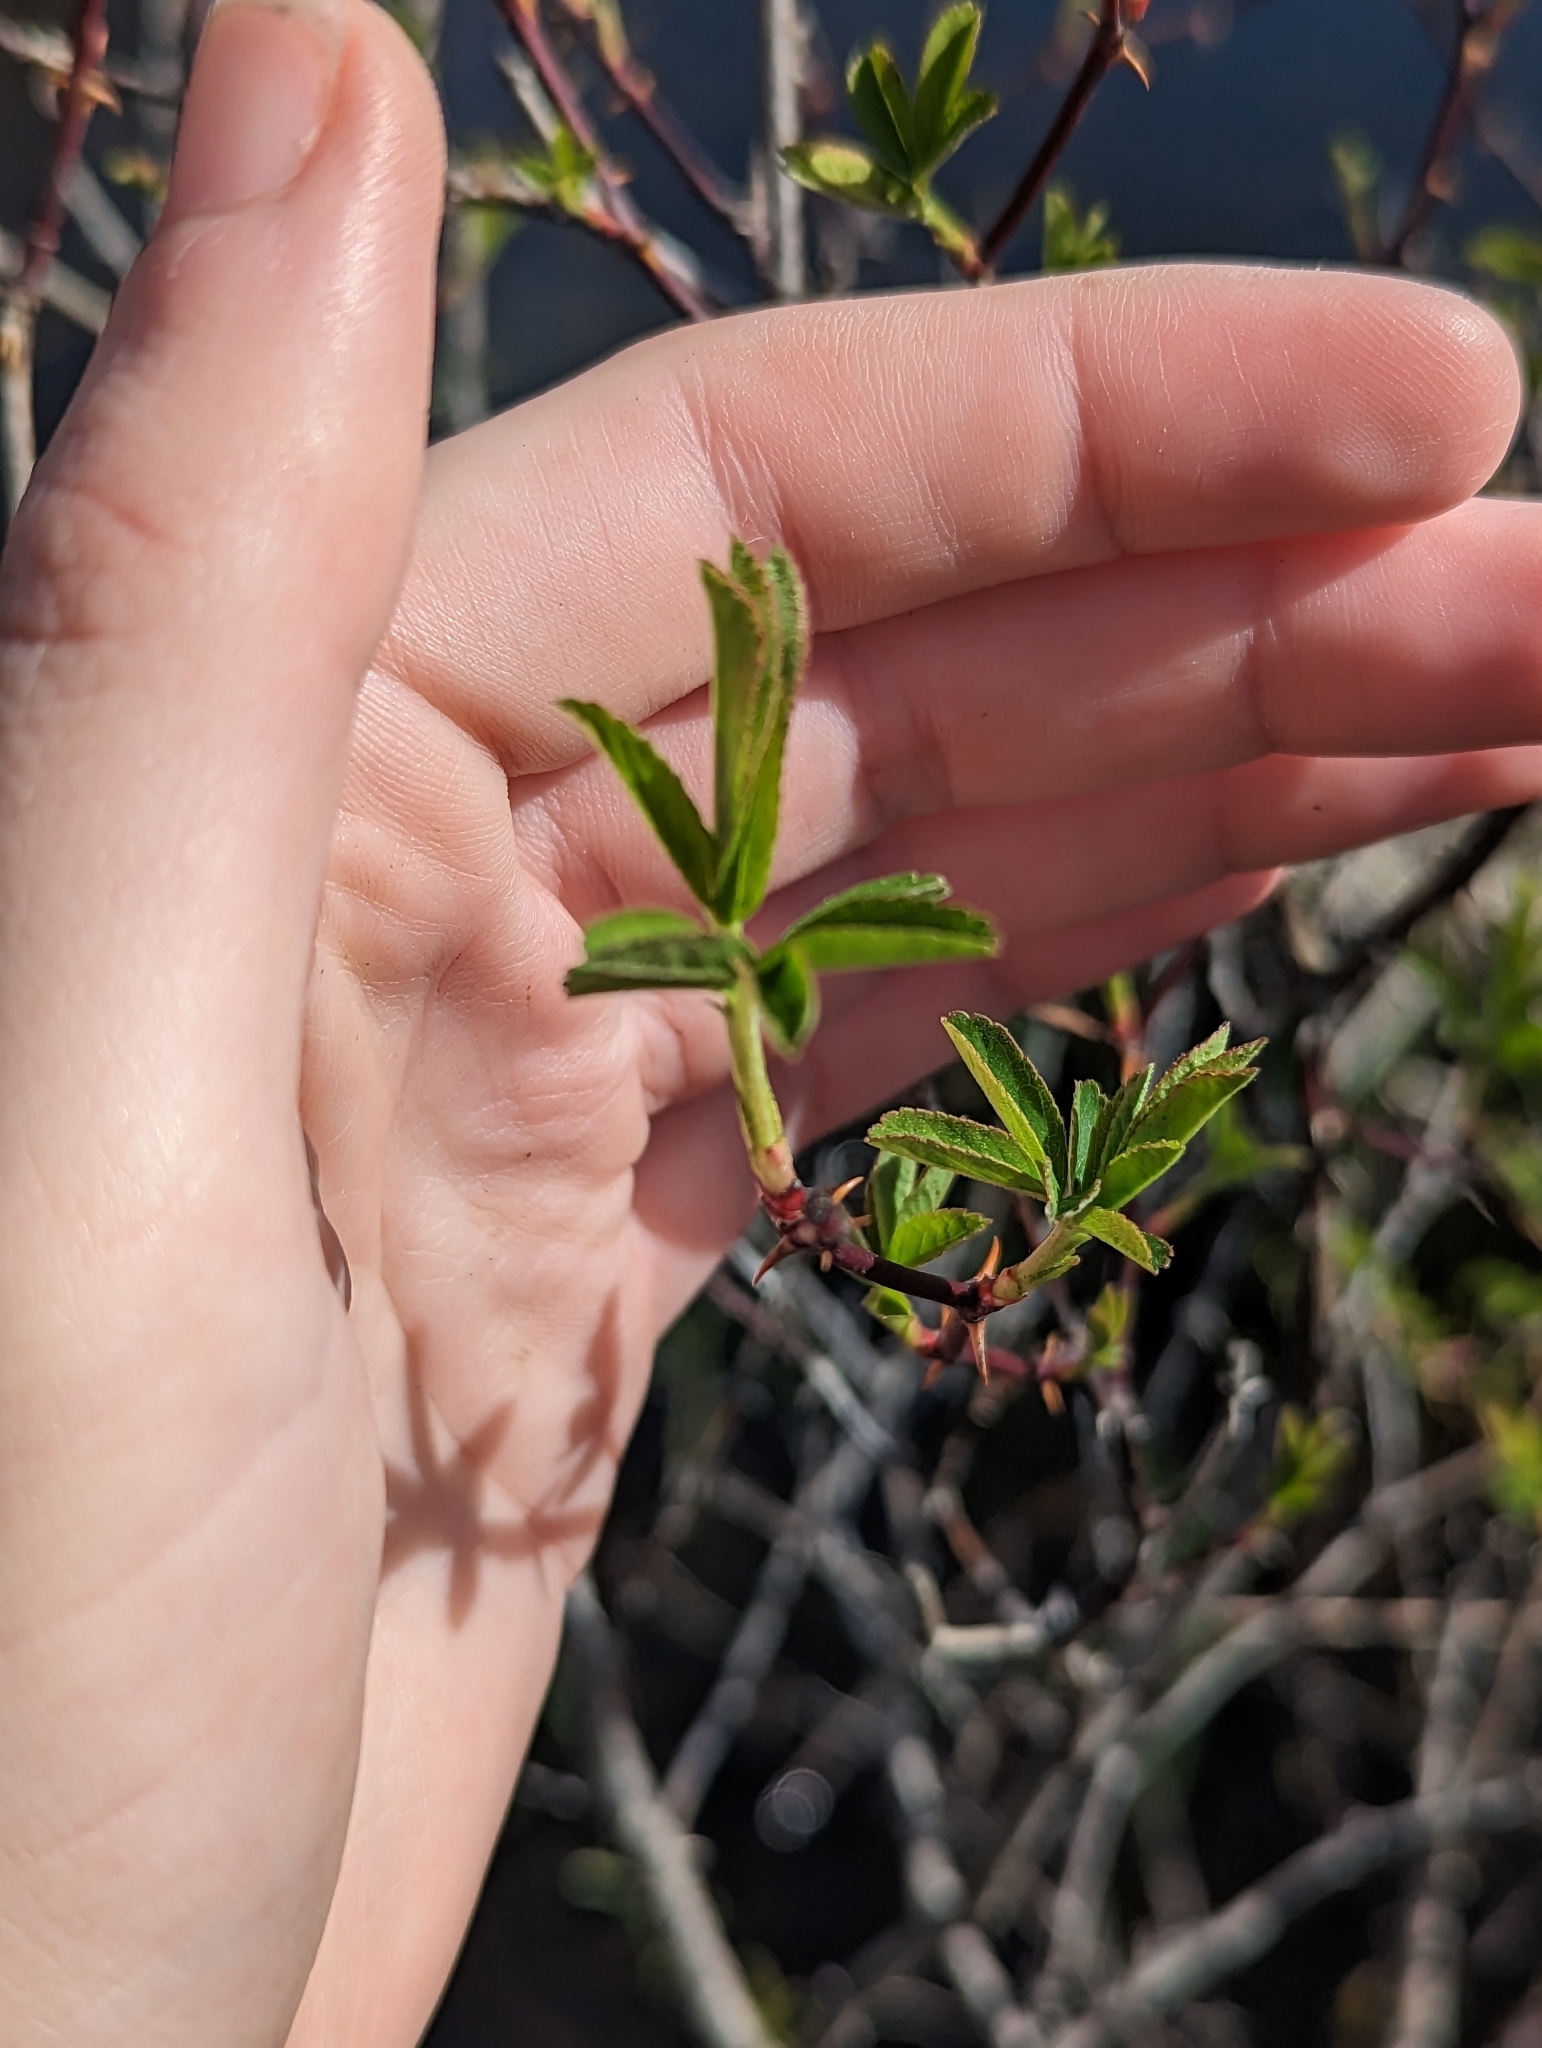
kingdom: Plantae
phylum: Tracheophyta
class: Magnoliopsida
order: Rosales
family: Rosaceae
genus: Rosa
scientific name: Rosa palustris
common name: Swamp rose
